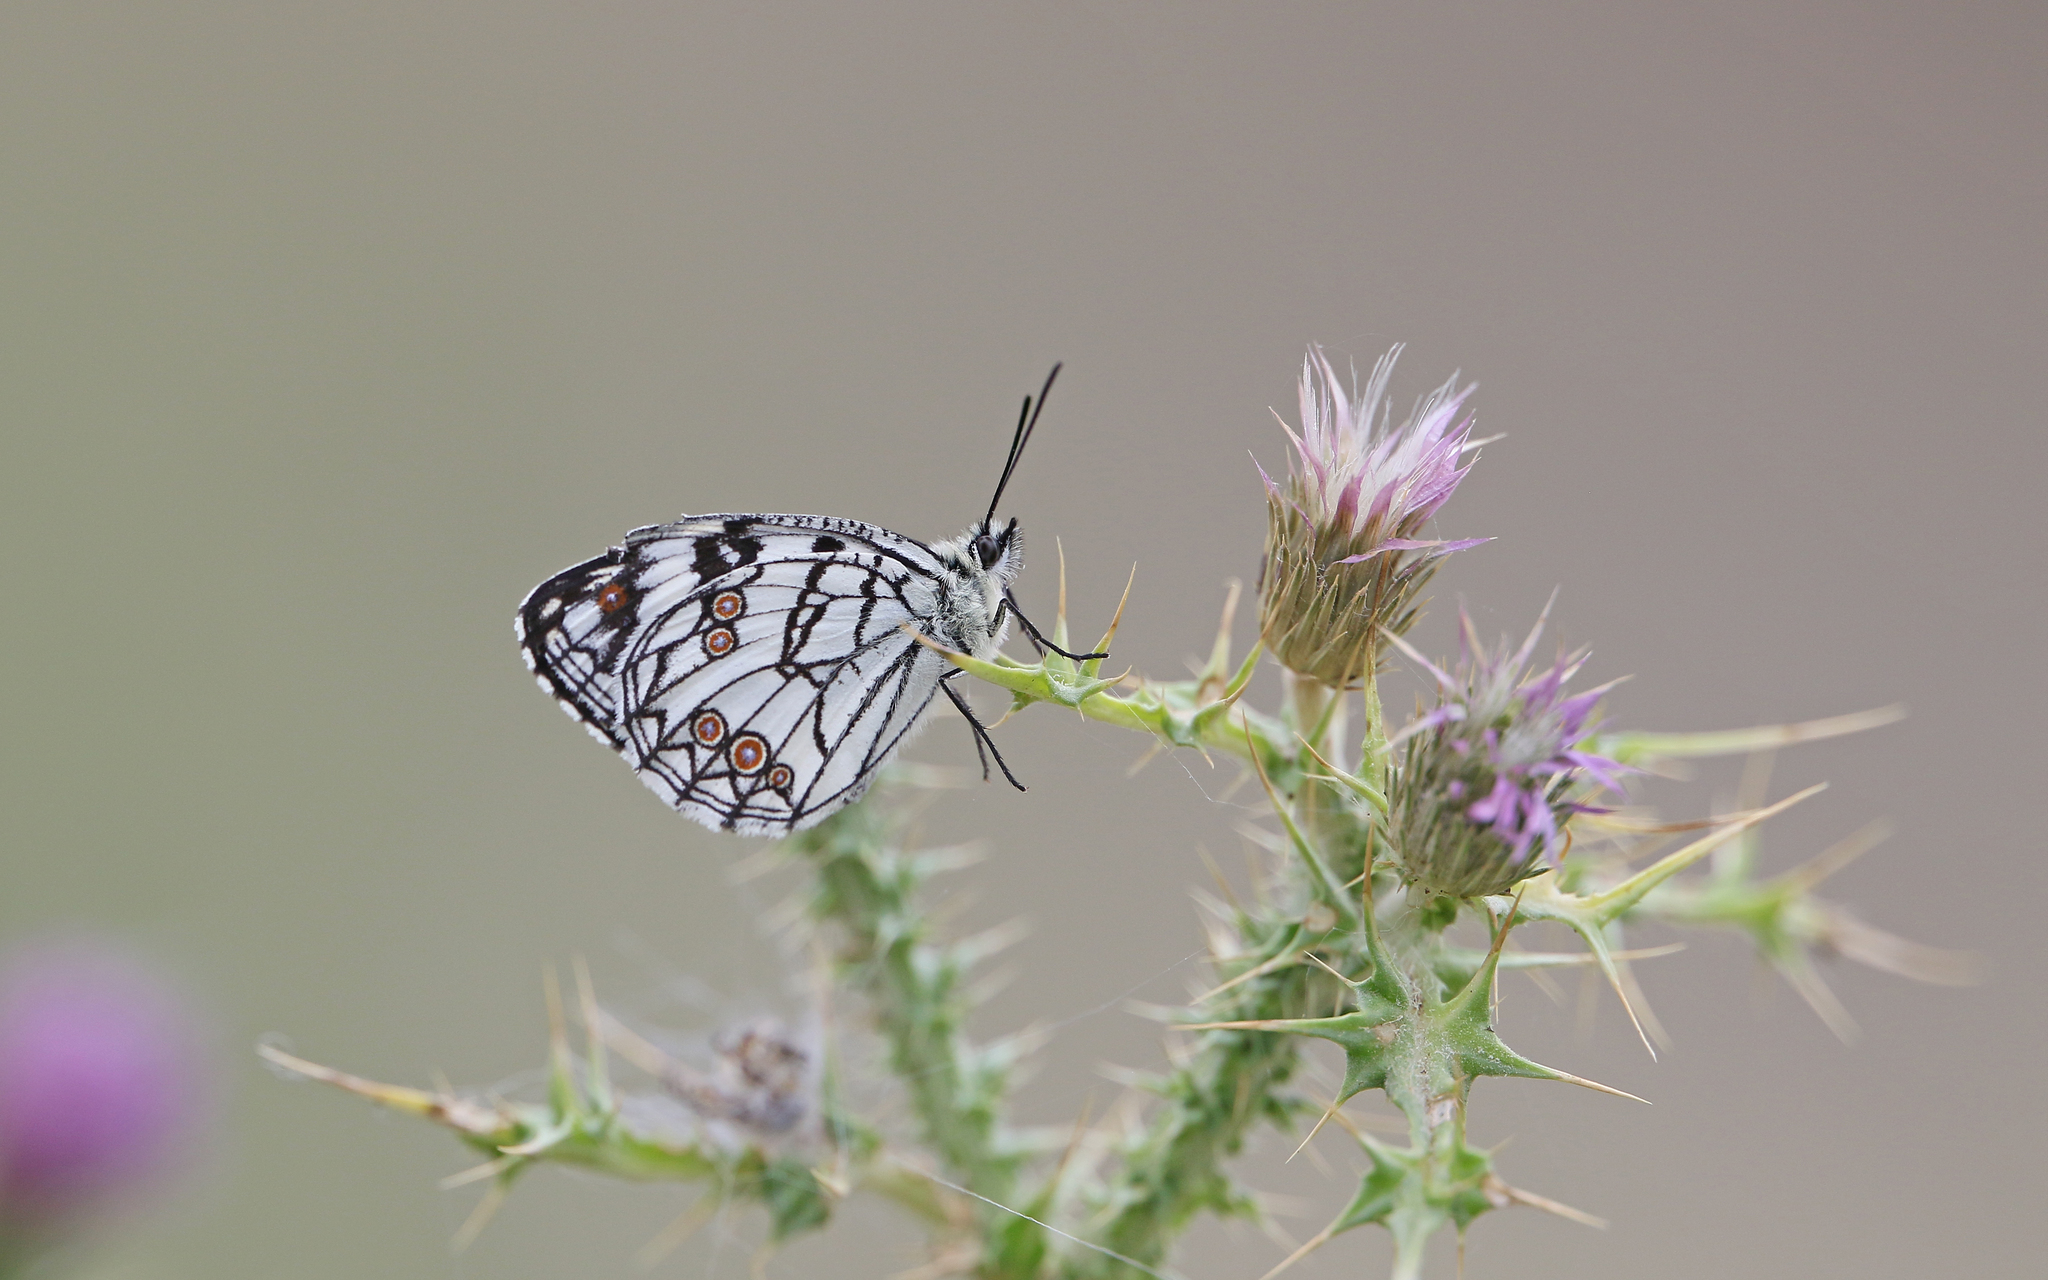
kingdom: Animalia
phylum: Arthropoda
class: Insecta
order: Lepidoptera
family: Nymphalidae
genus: Melanargia
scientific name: Melanargia ines
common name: Spanish marbled white
